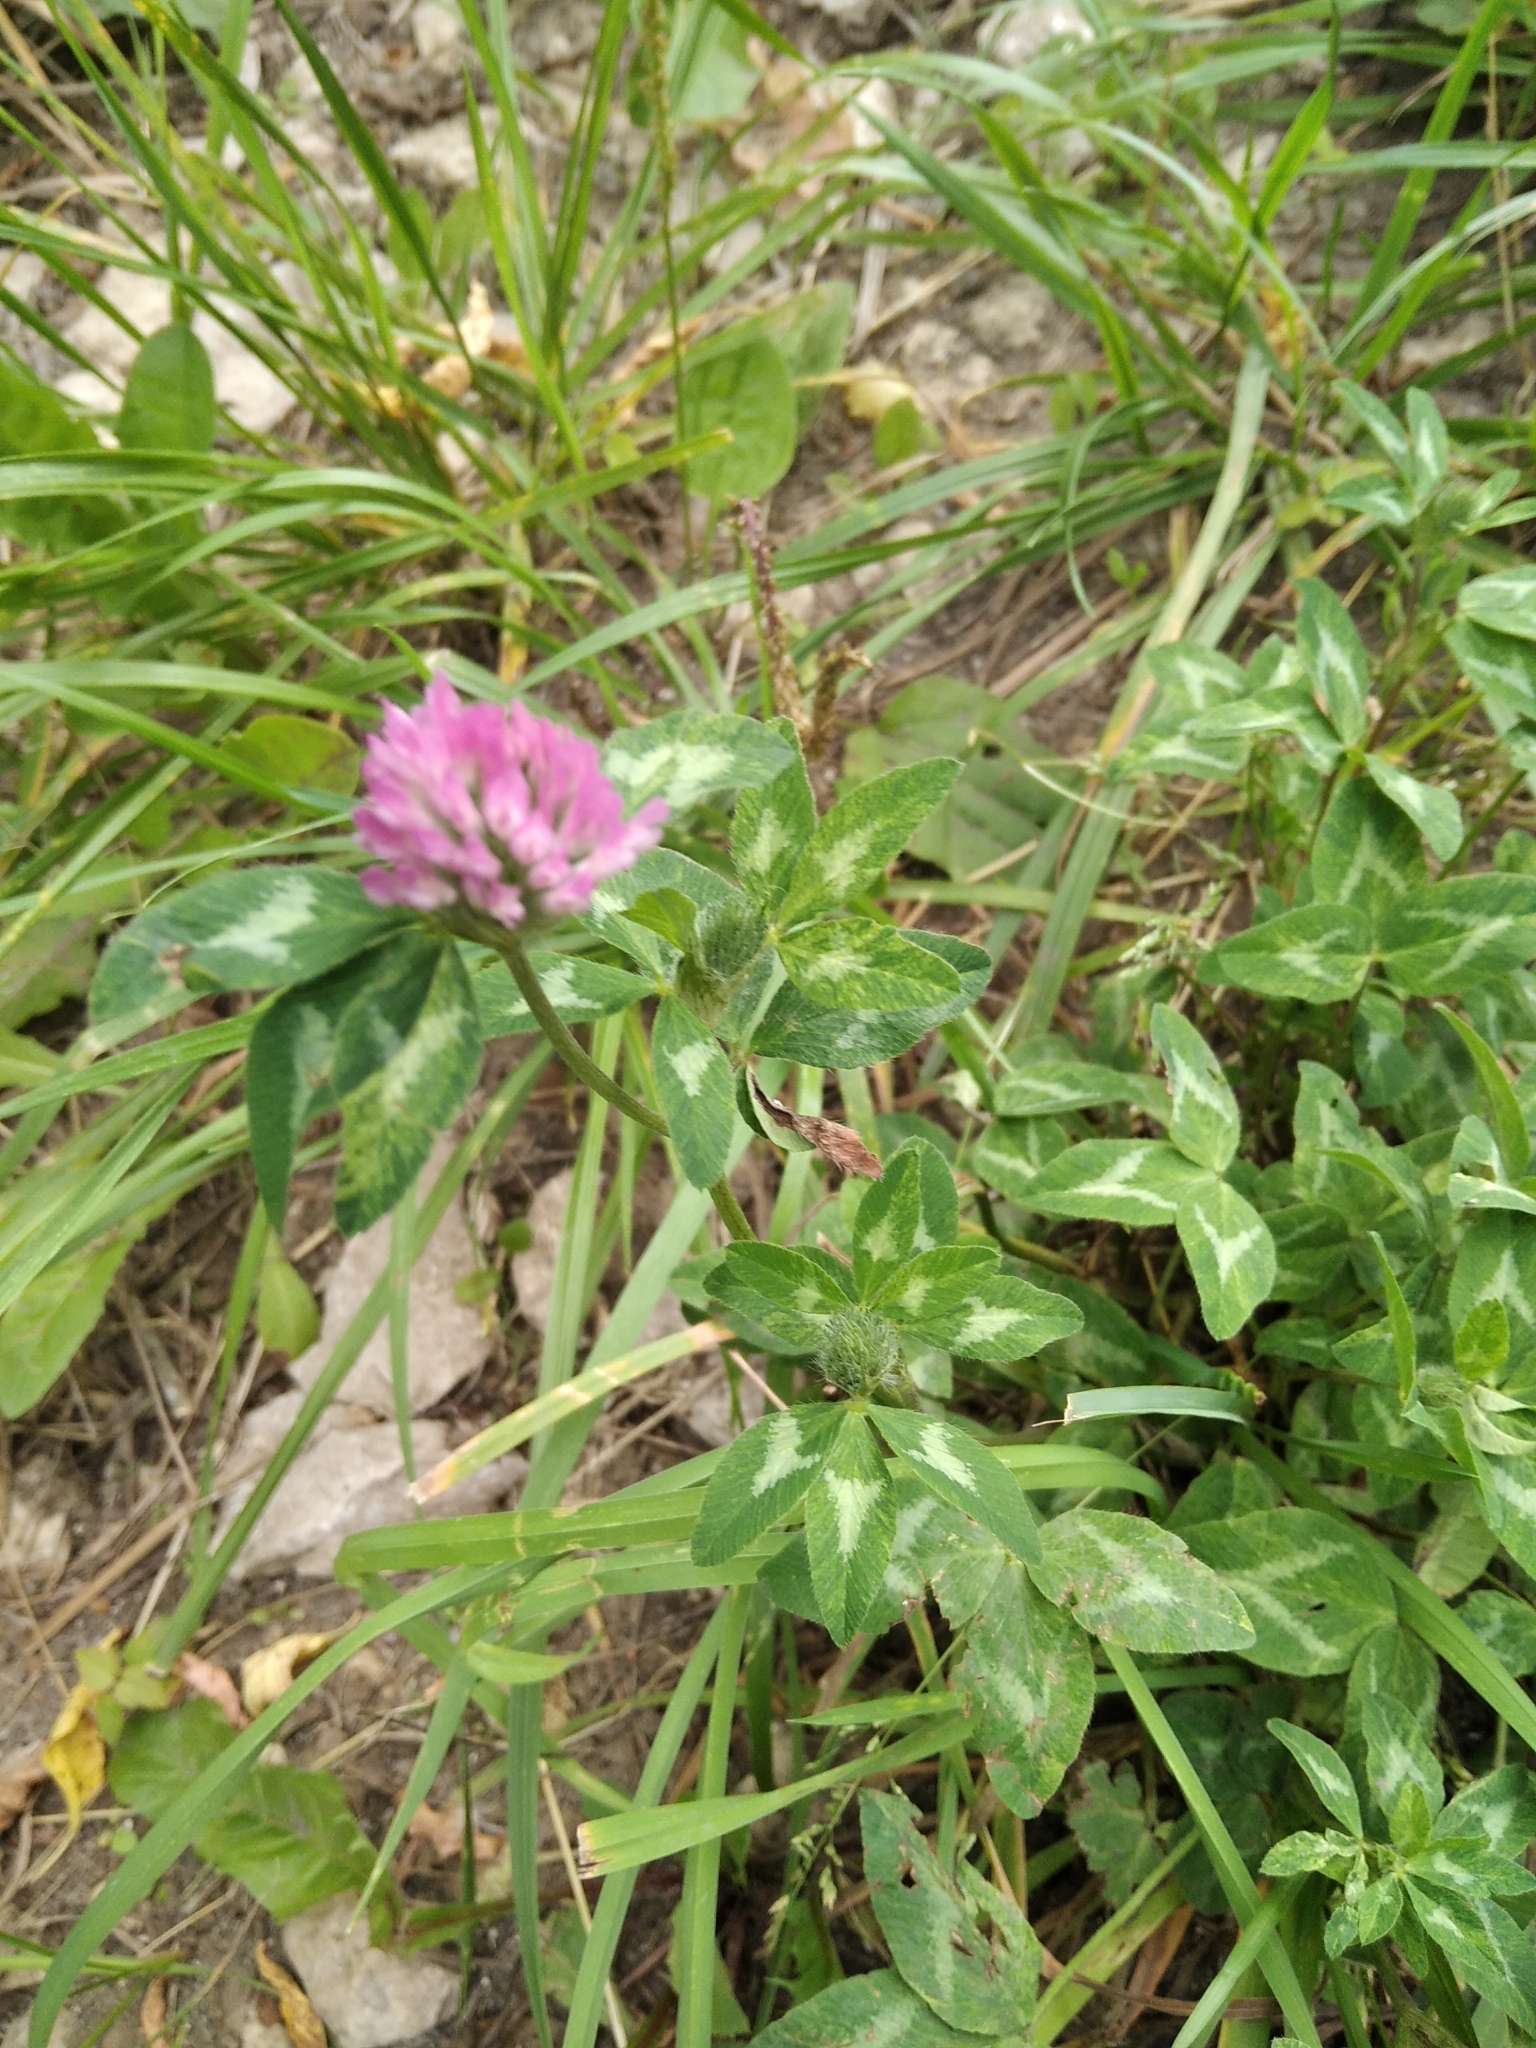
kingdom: Plantae
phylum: Tracheophyta
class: Magnoliopsida
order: Fabales
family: Fabaceae
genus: Trifolium
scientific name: Trifolium pratense
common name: Red clover
